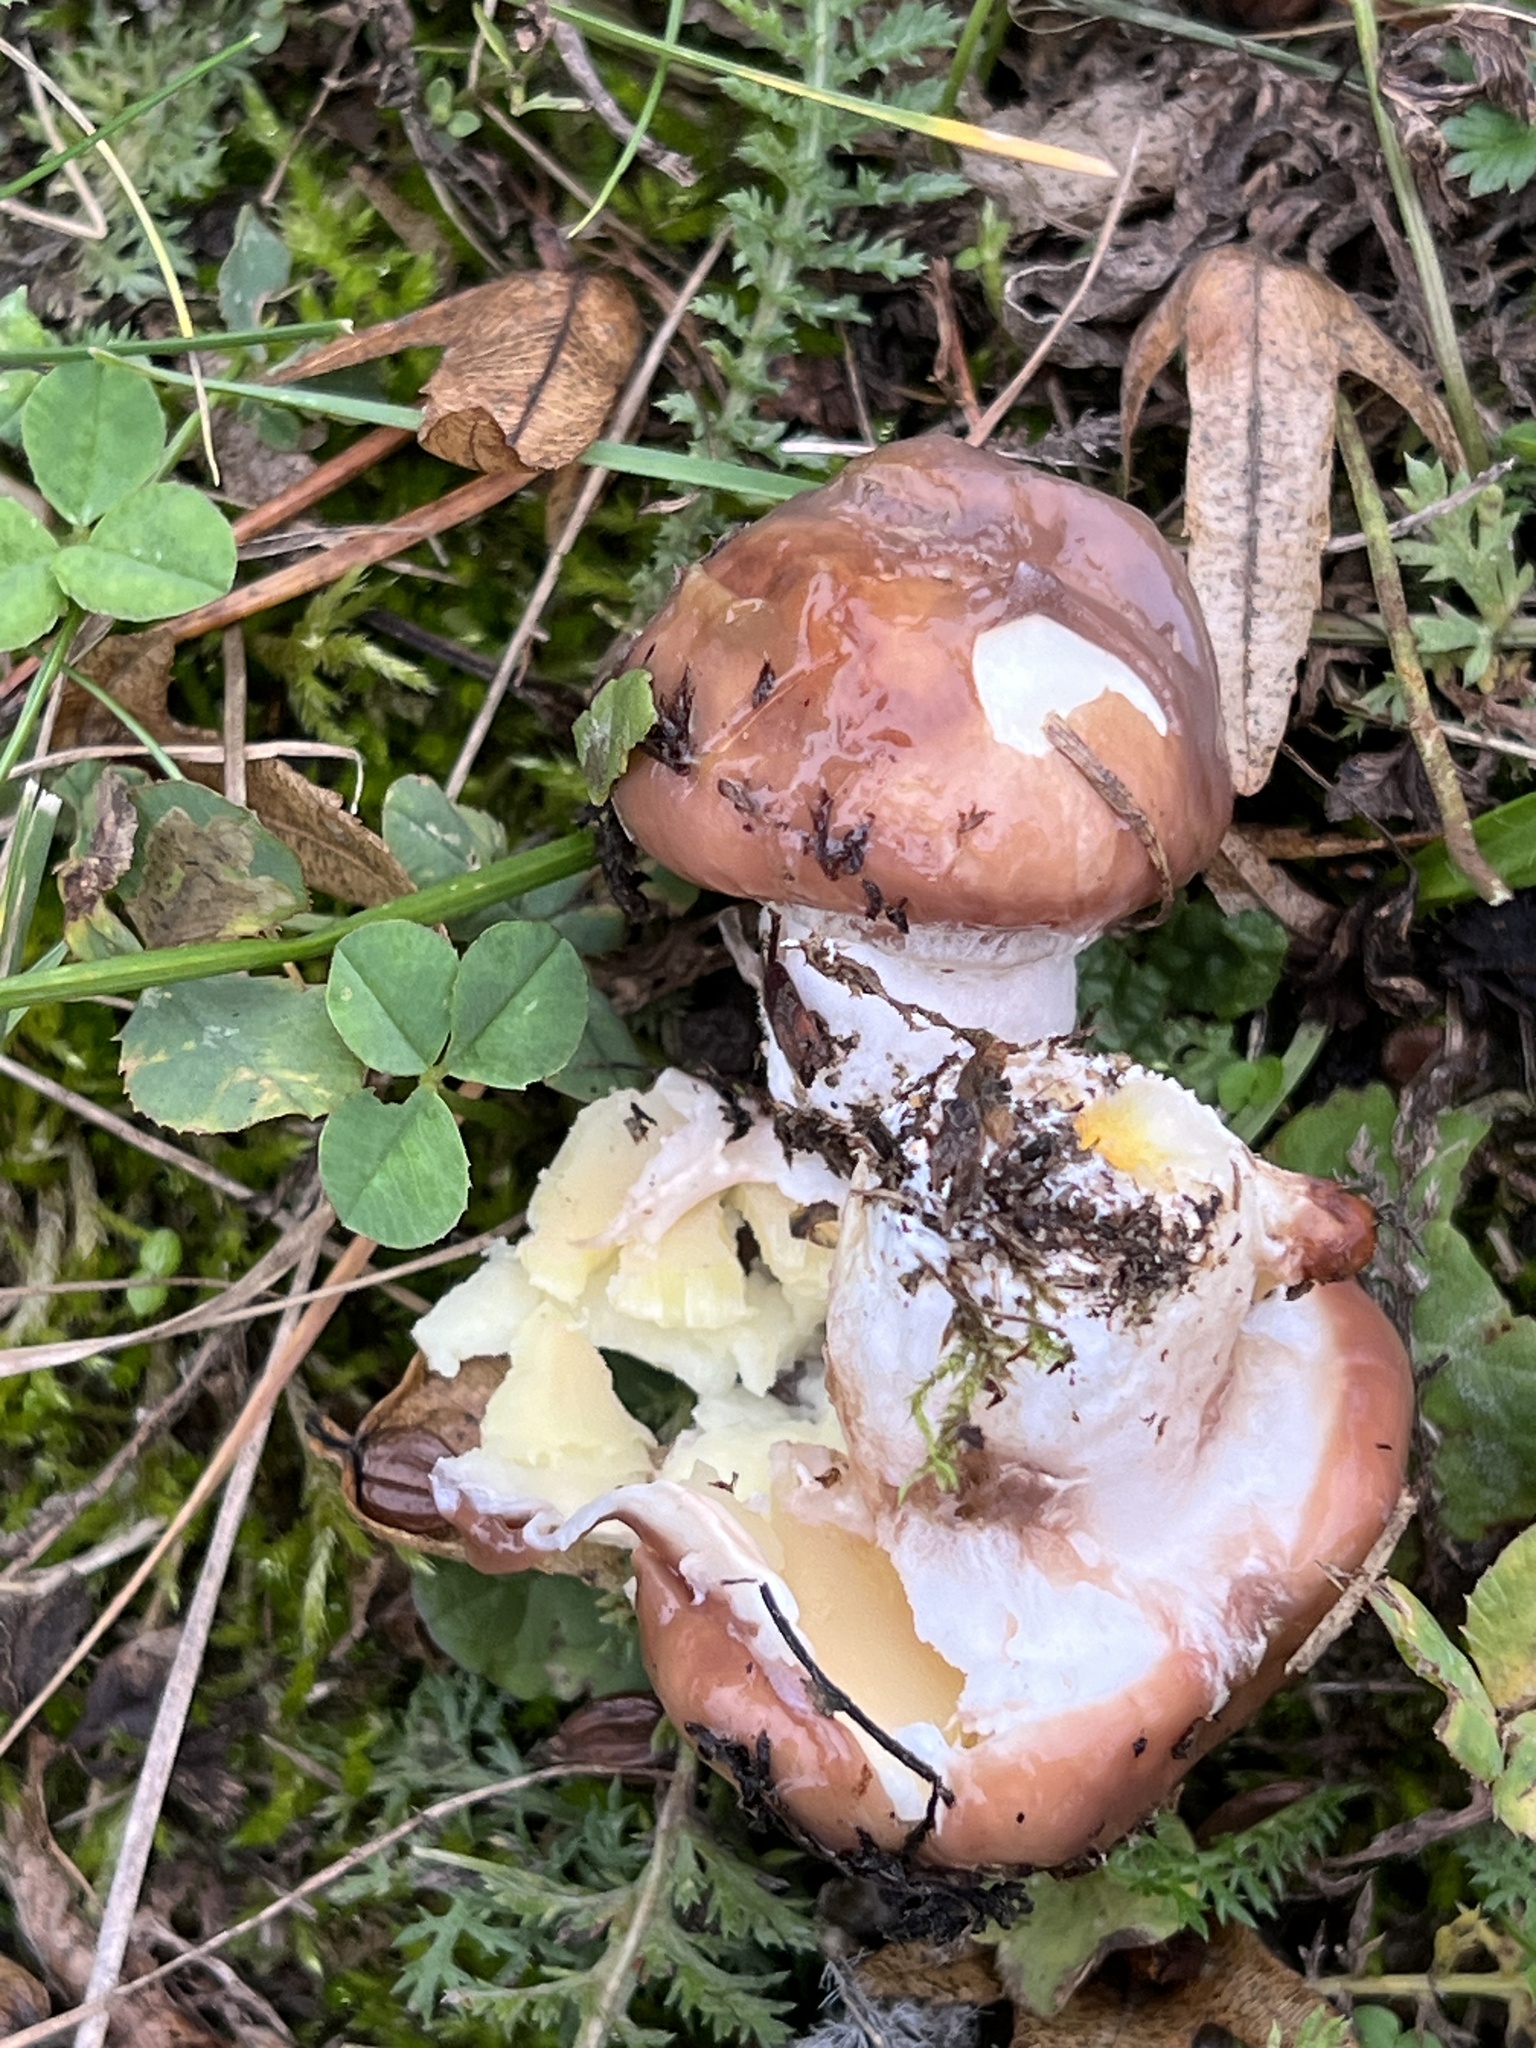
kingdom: Fungi
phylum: Basidiomycota
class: Agaricomycetes
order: Boletales
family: Suillaceae
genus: Suillus
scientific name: Suillus luteus
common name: Slippery jack
